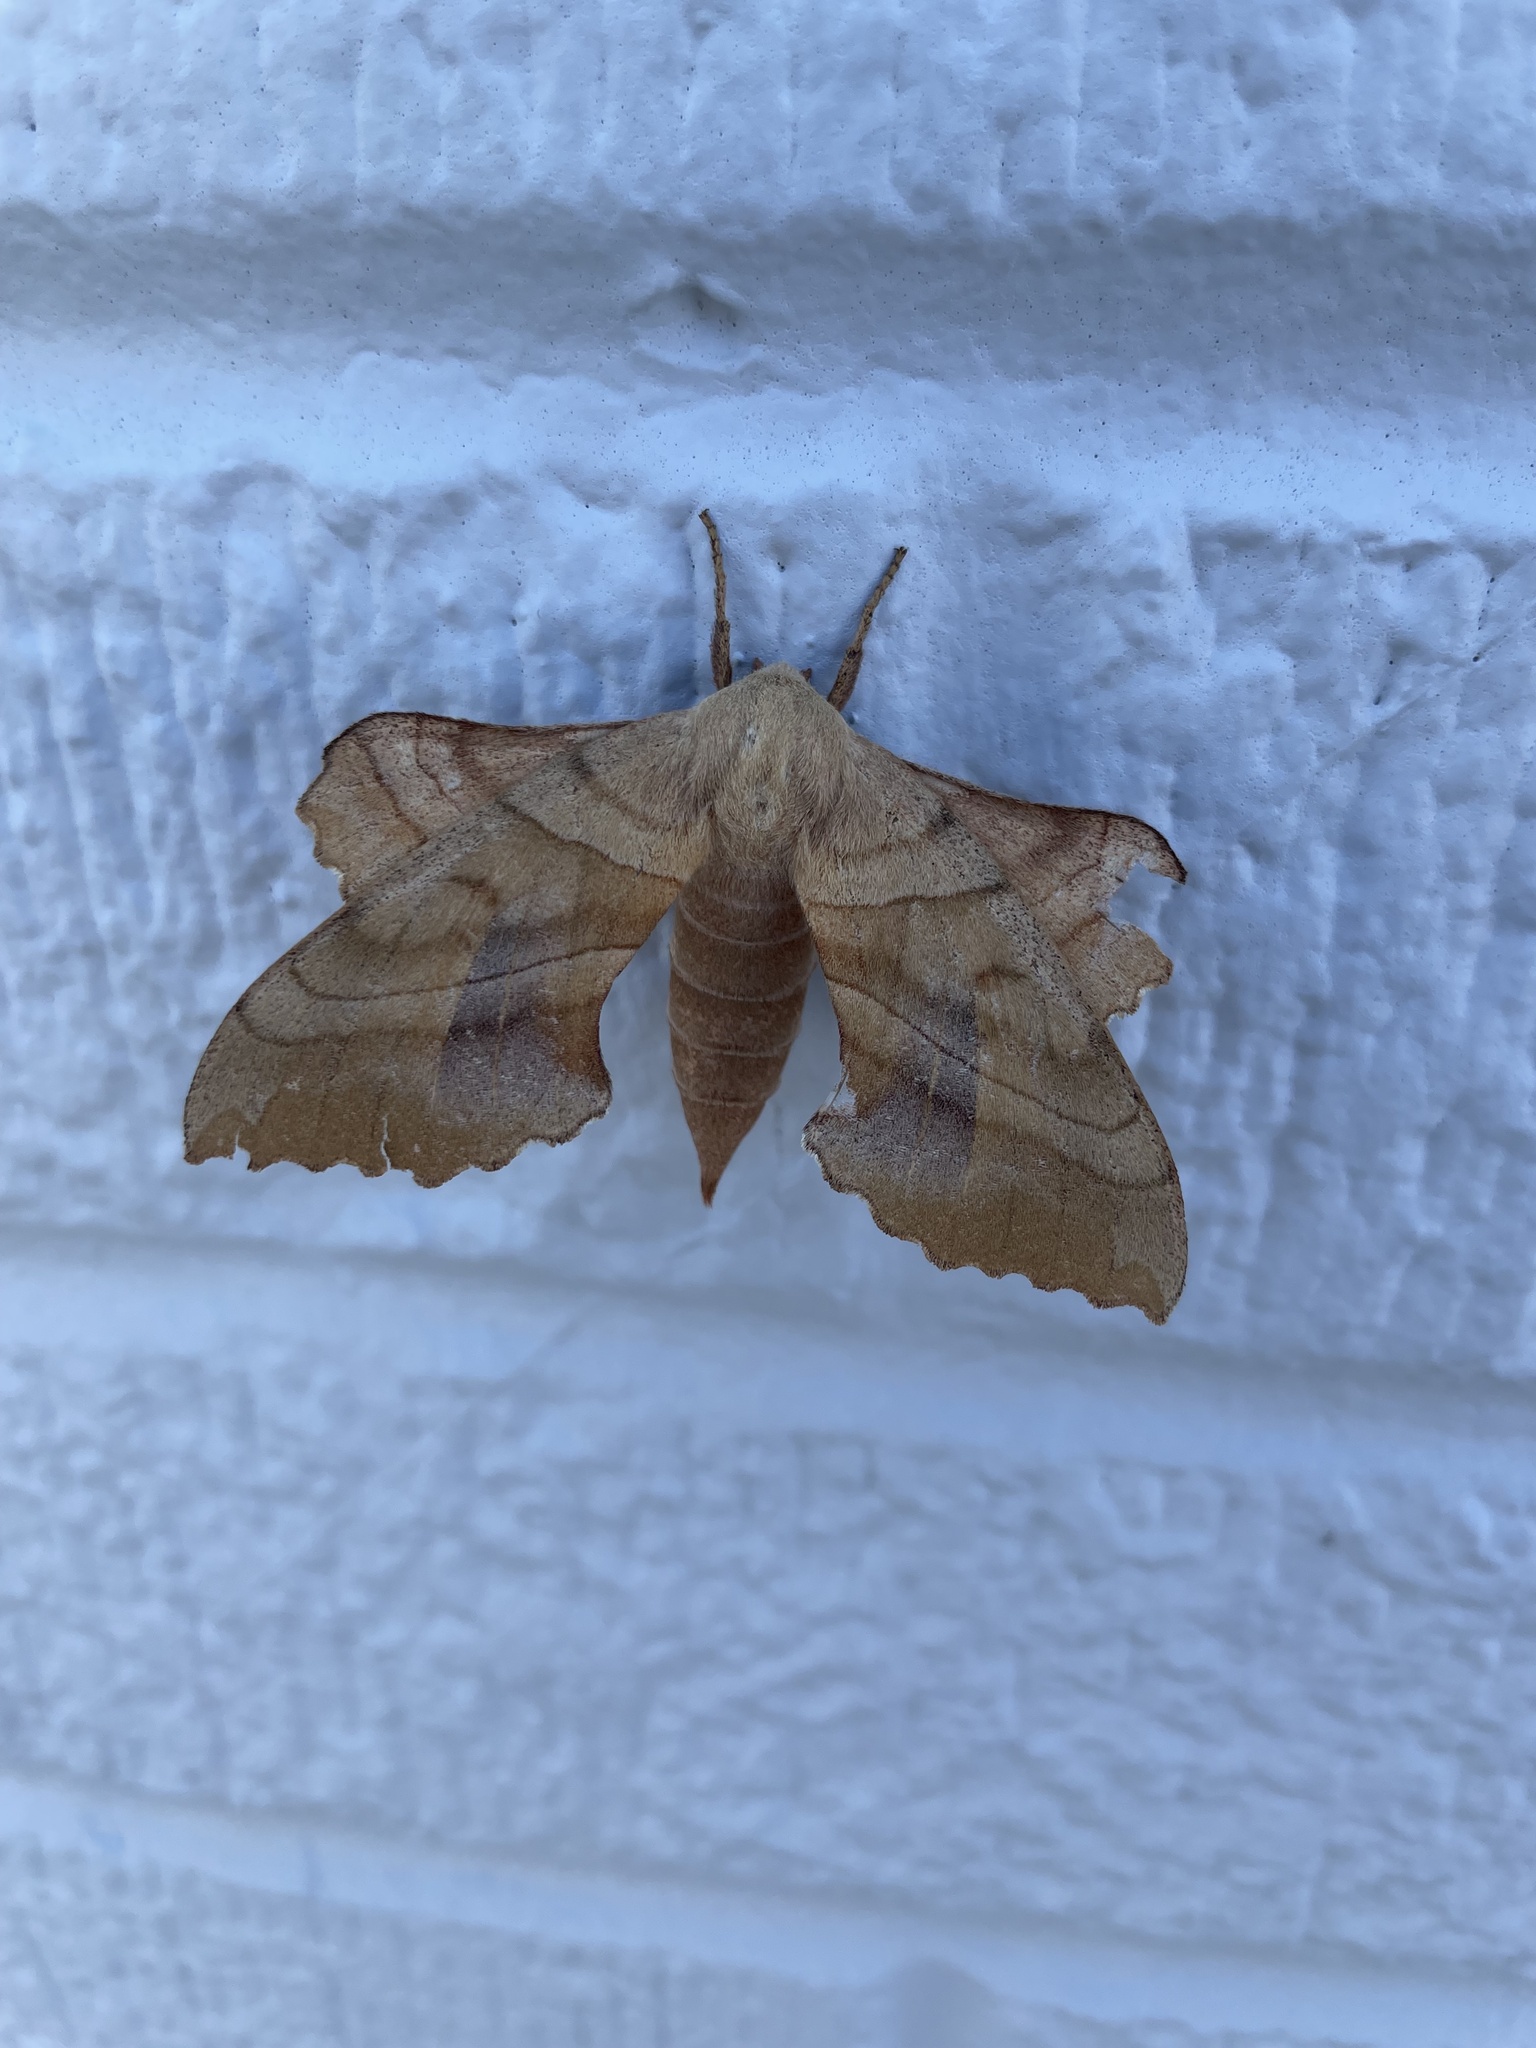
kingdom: Animalia
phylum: Arthropoda
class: Insecta
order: Lepidoptera
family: Sphingidae
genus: Amorpha
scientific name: Amorpha juglandis
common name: Walnut sphinx
